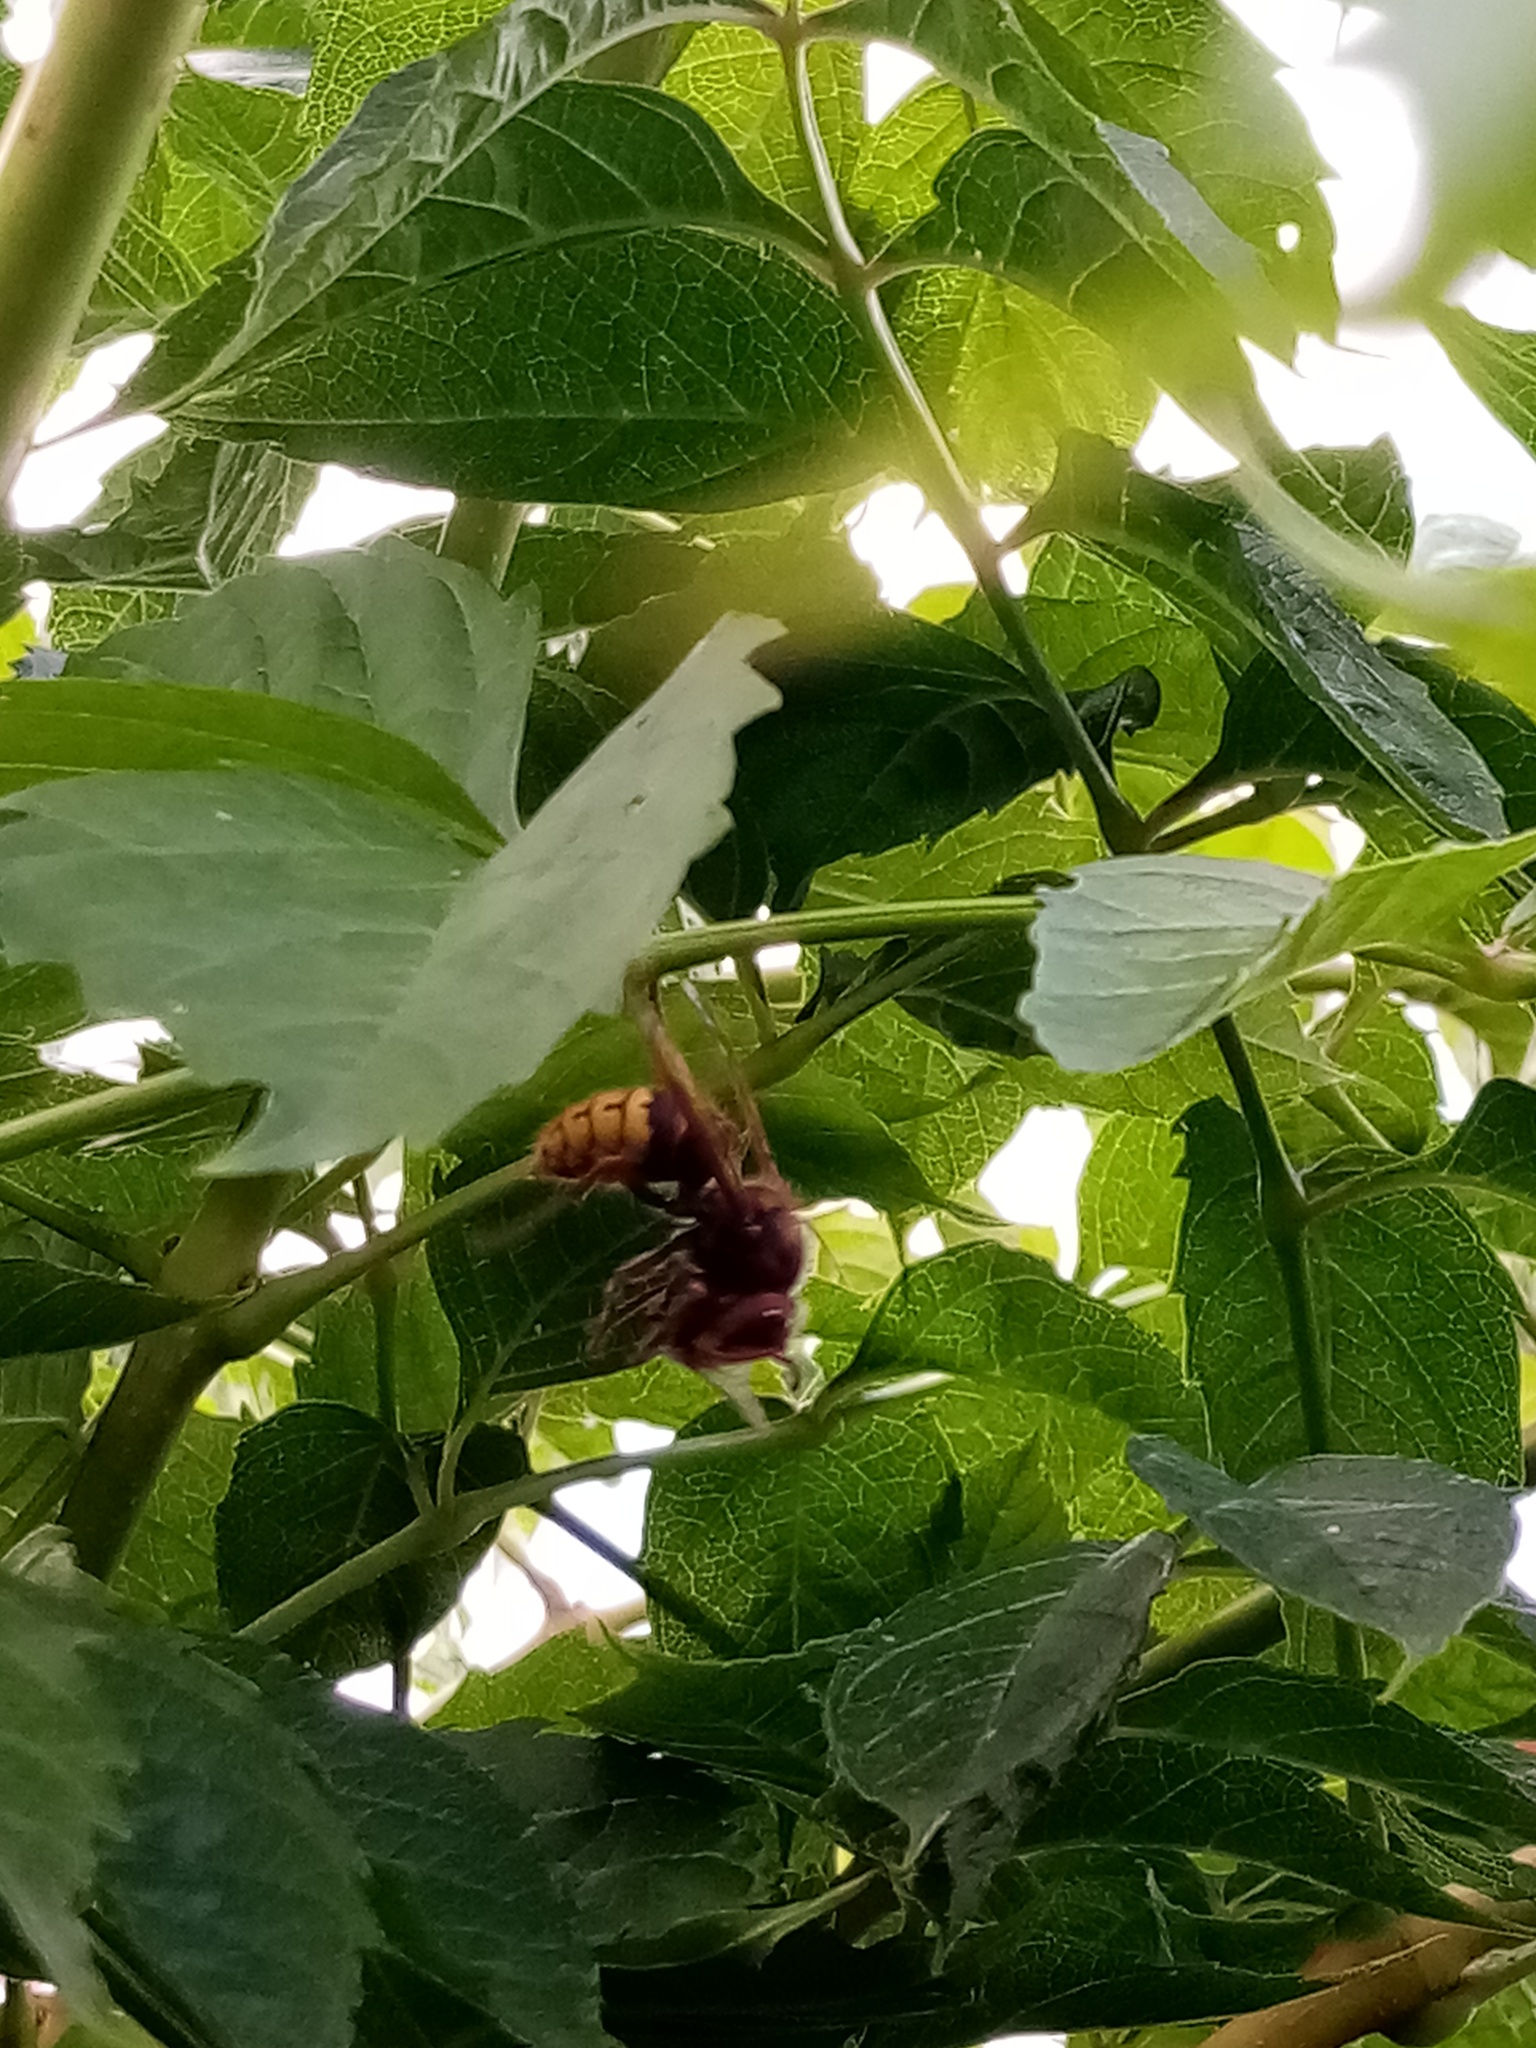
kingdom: Animalia
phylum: Arthropoda
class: Insecta
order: Hymenoptera
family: Vespidae
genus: Vespa
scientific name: Vespa crabro
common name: Hornet
